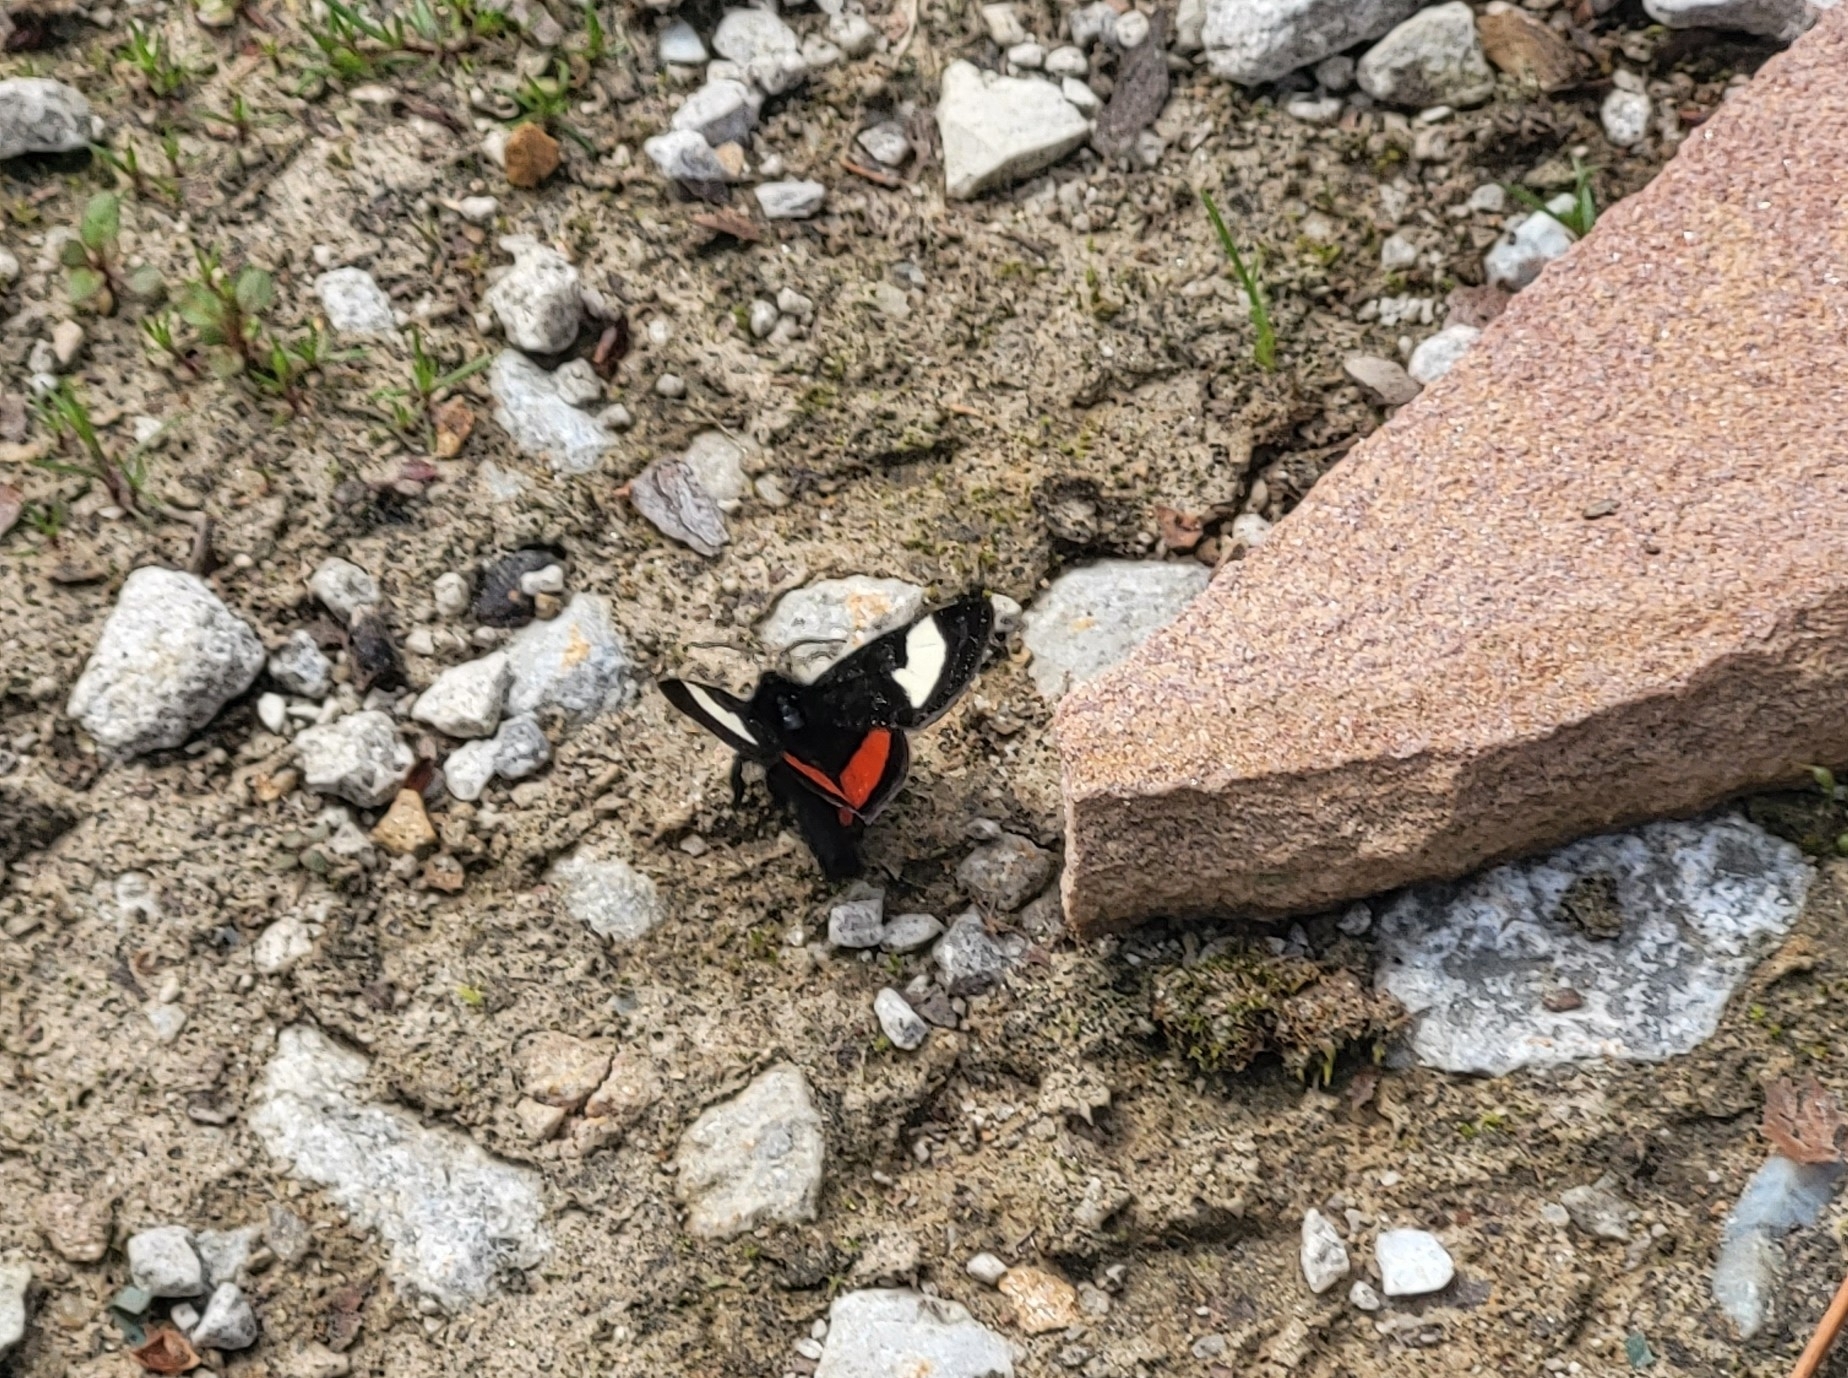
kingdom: Animalia
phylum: Arthropoda
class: Insecta
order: Lepidoptera
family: Noctuidae
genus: Psychomorpha
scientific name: Psychomorpha epimenis
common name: Grapevine epimenis moth
